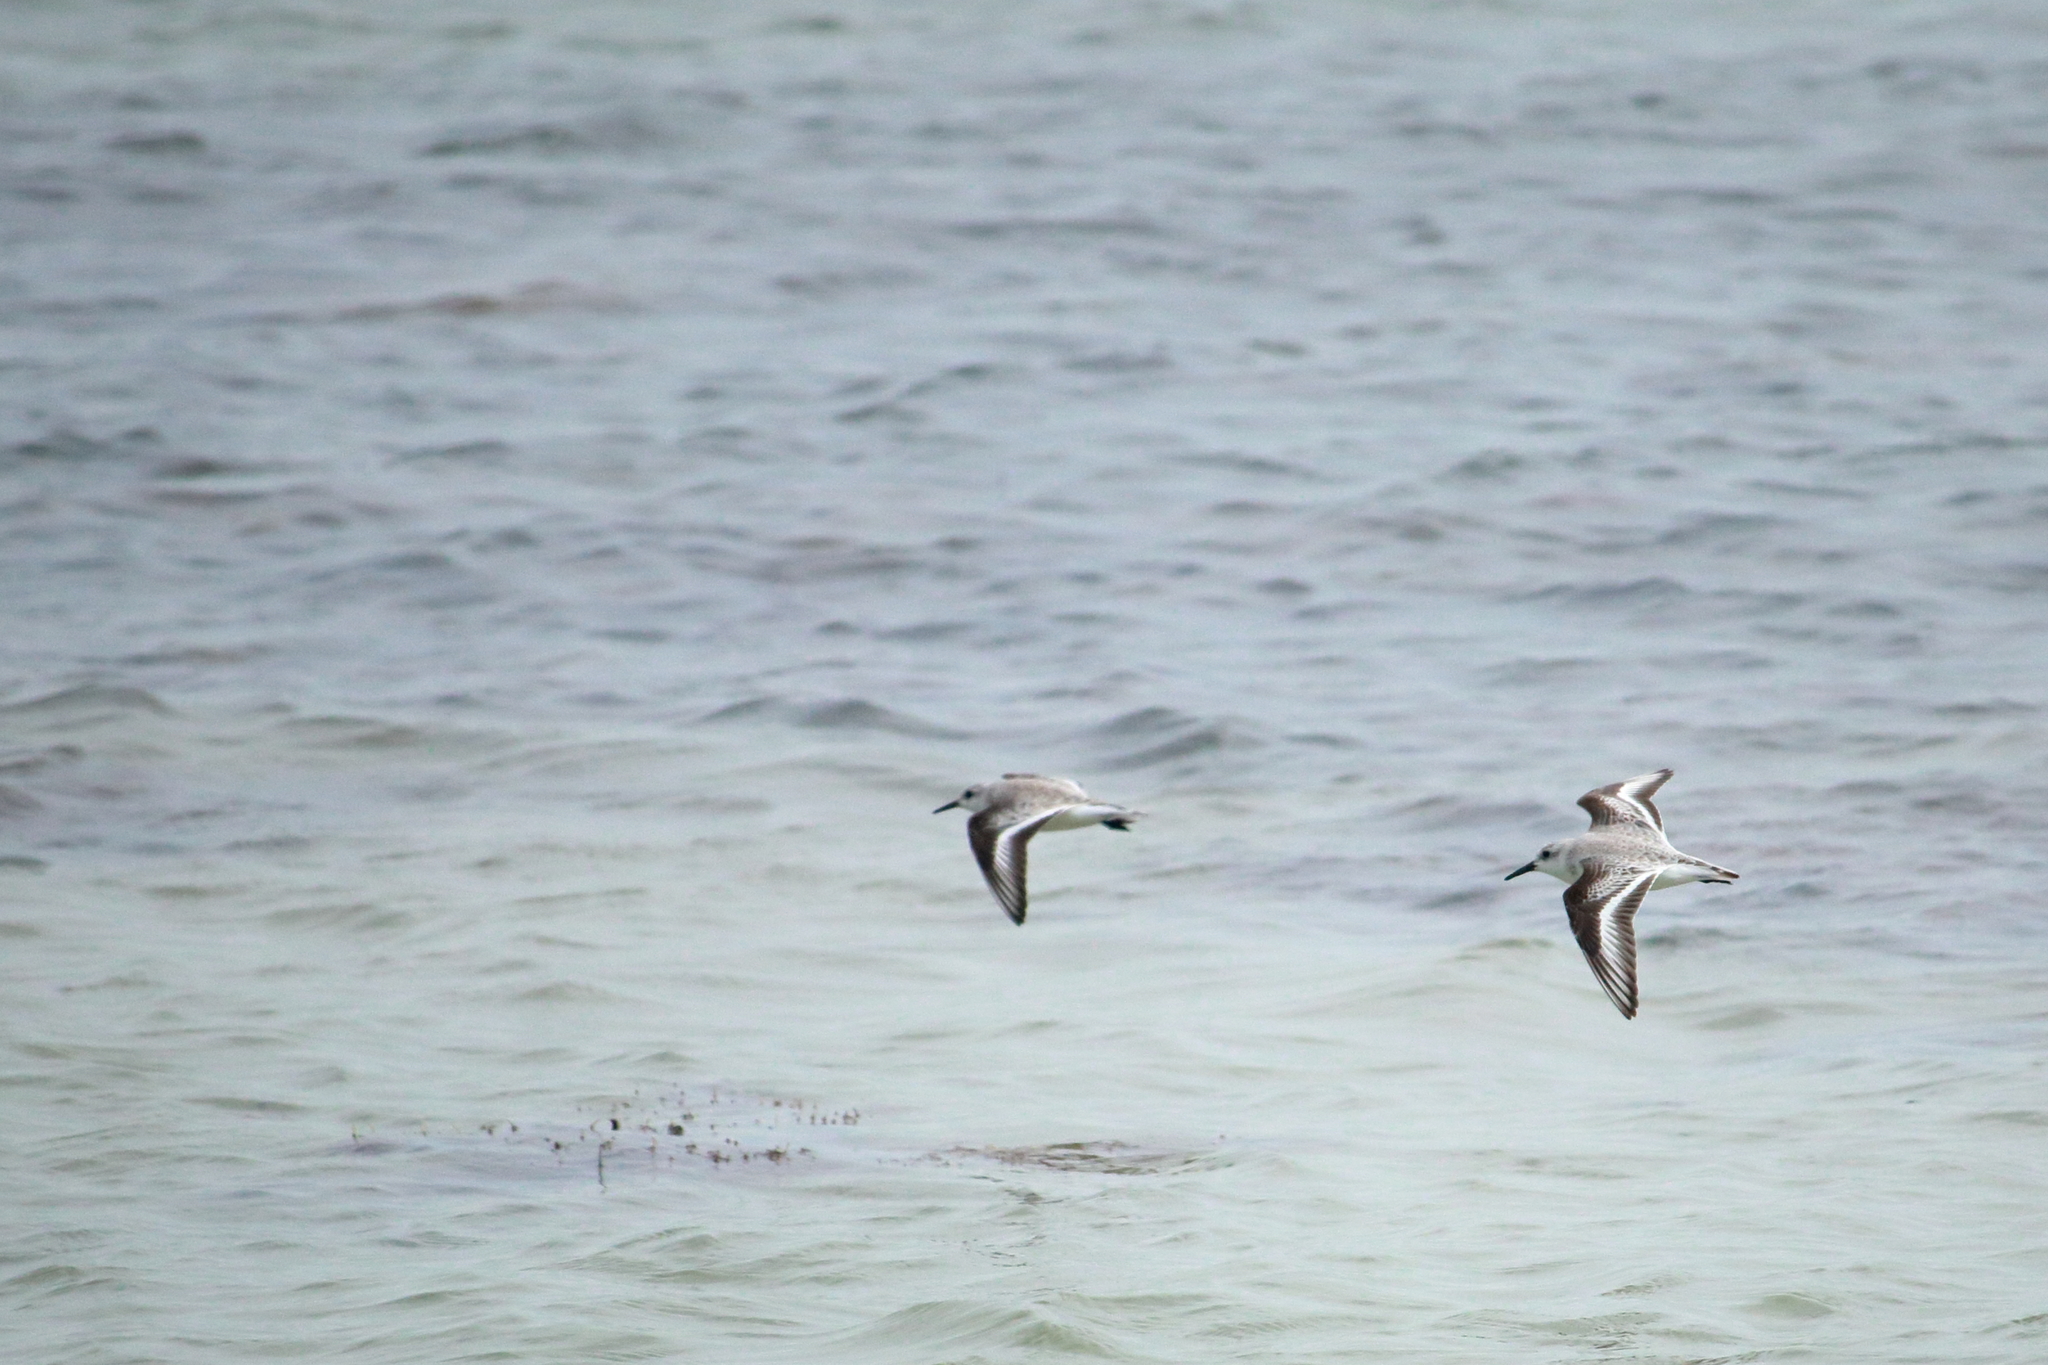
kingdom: Animalia
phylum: Chordata
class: Aves
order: Charadriiformes
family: Scolopacidae
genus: Calidris
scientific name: Calidris alba
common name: Sanderling
